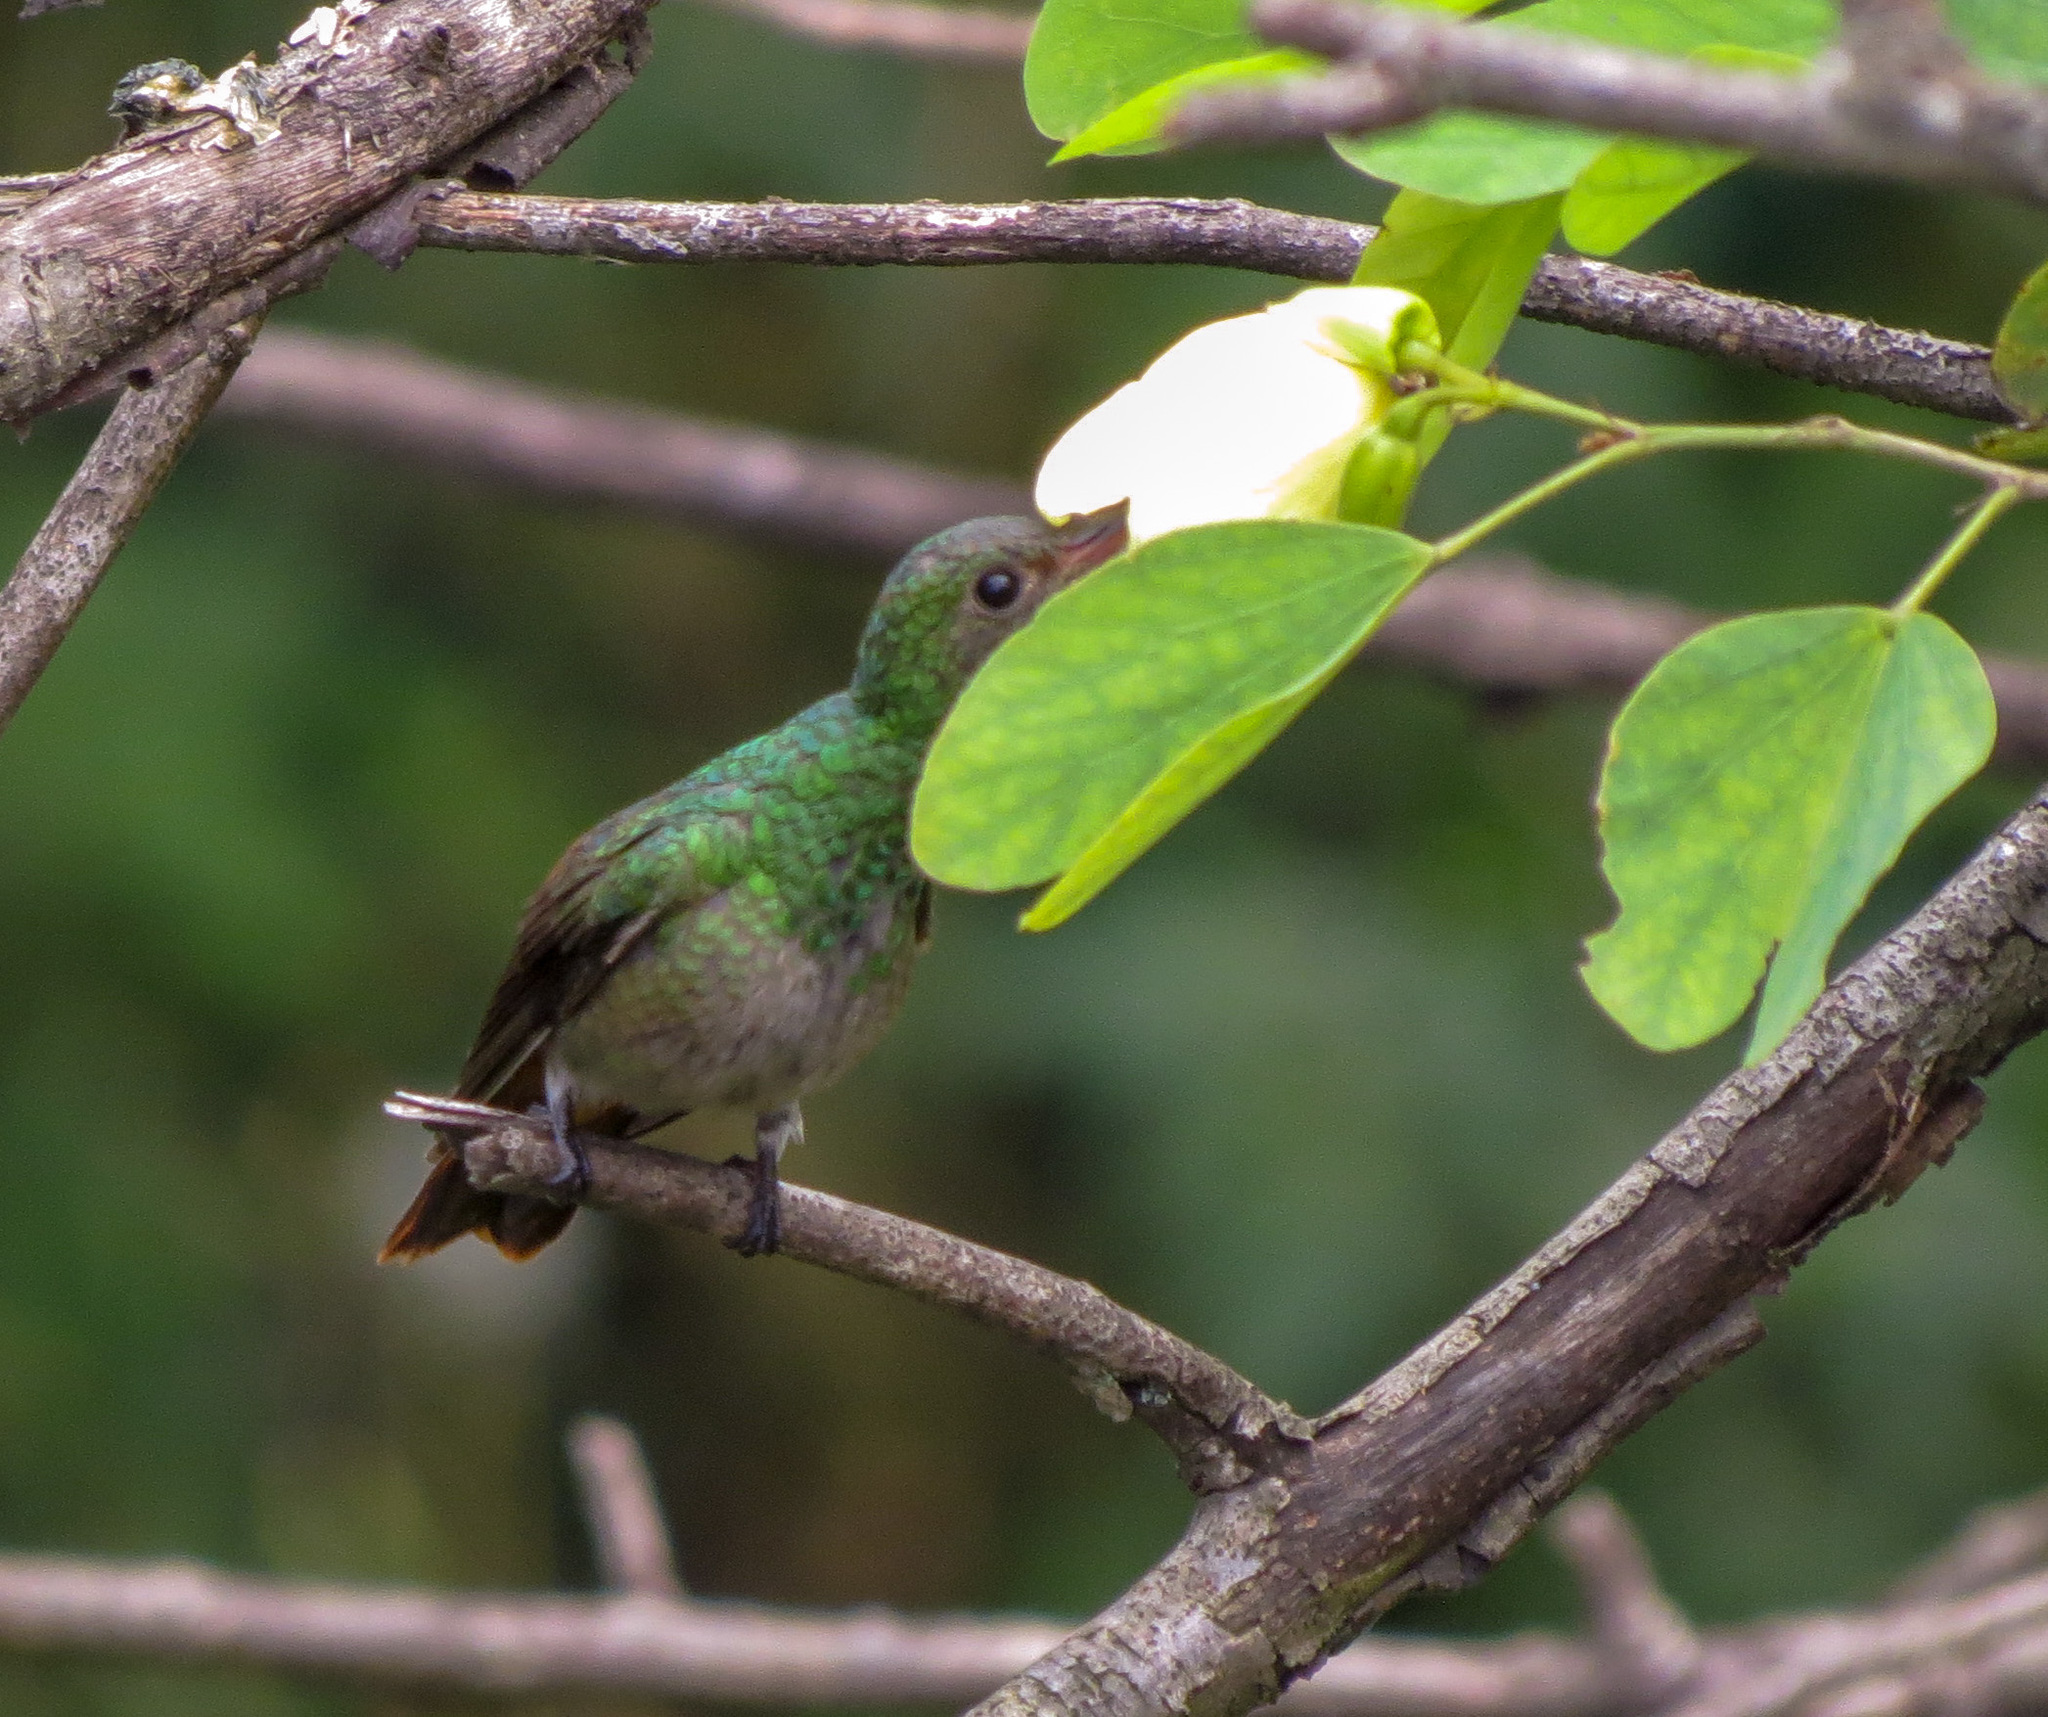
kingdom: Animalia
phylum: Chordata
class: Aves
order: Apodiformes
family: Trochilidae
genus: Amazilia
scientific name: Amazilia tzacatl
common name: Rufous-tailed hummingbird
